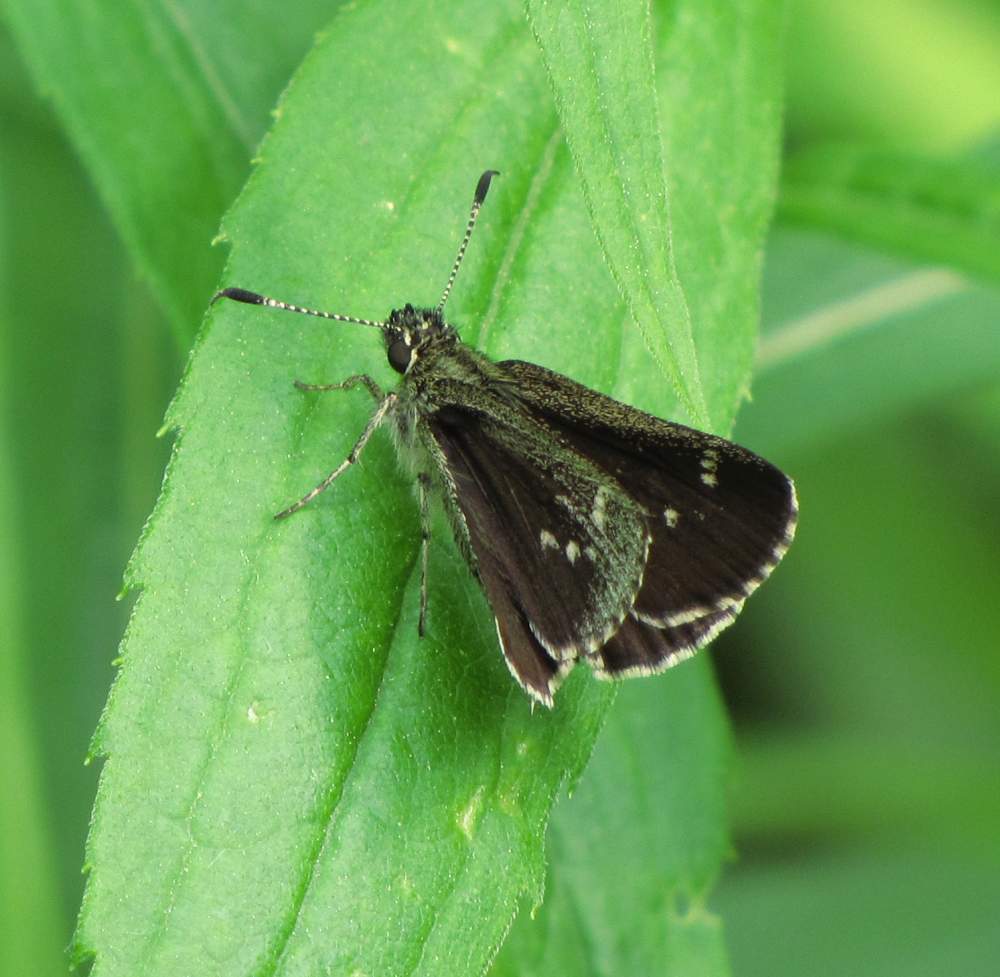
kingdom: Animalia
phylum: Arthropoda
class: Insecta
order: Lepidoptera
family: Hesperiidae
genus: Mastor
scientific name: Mastor hegon
